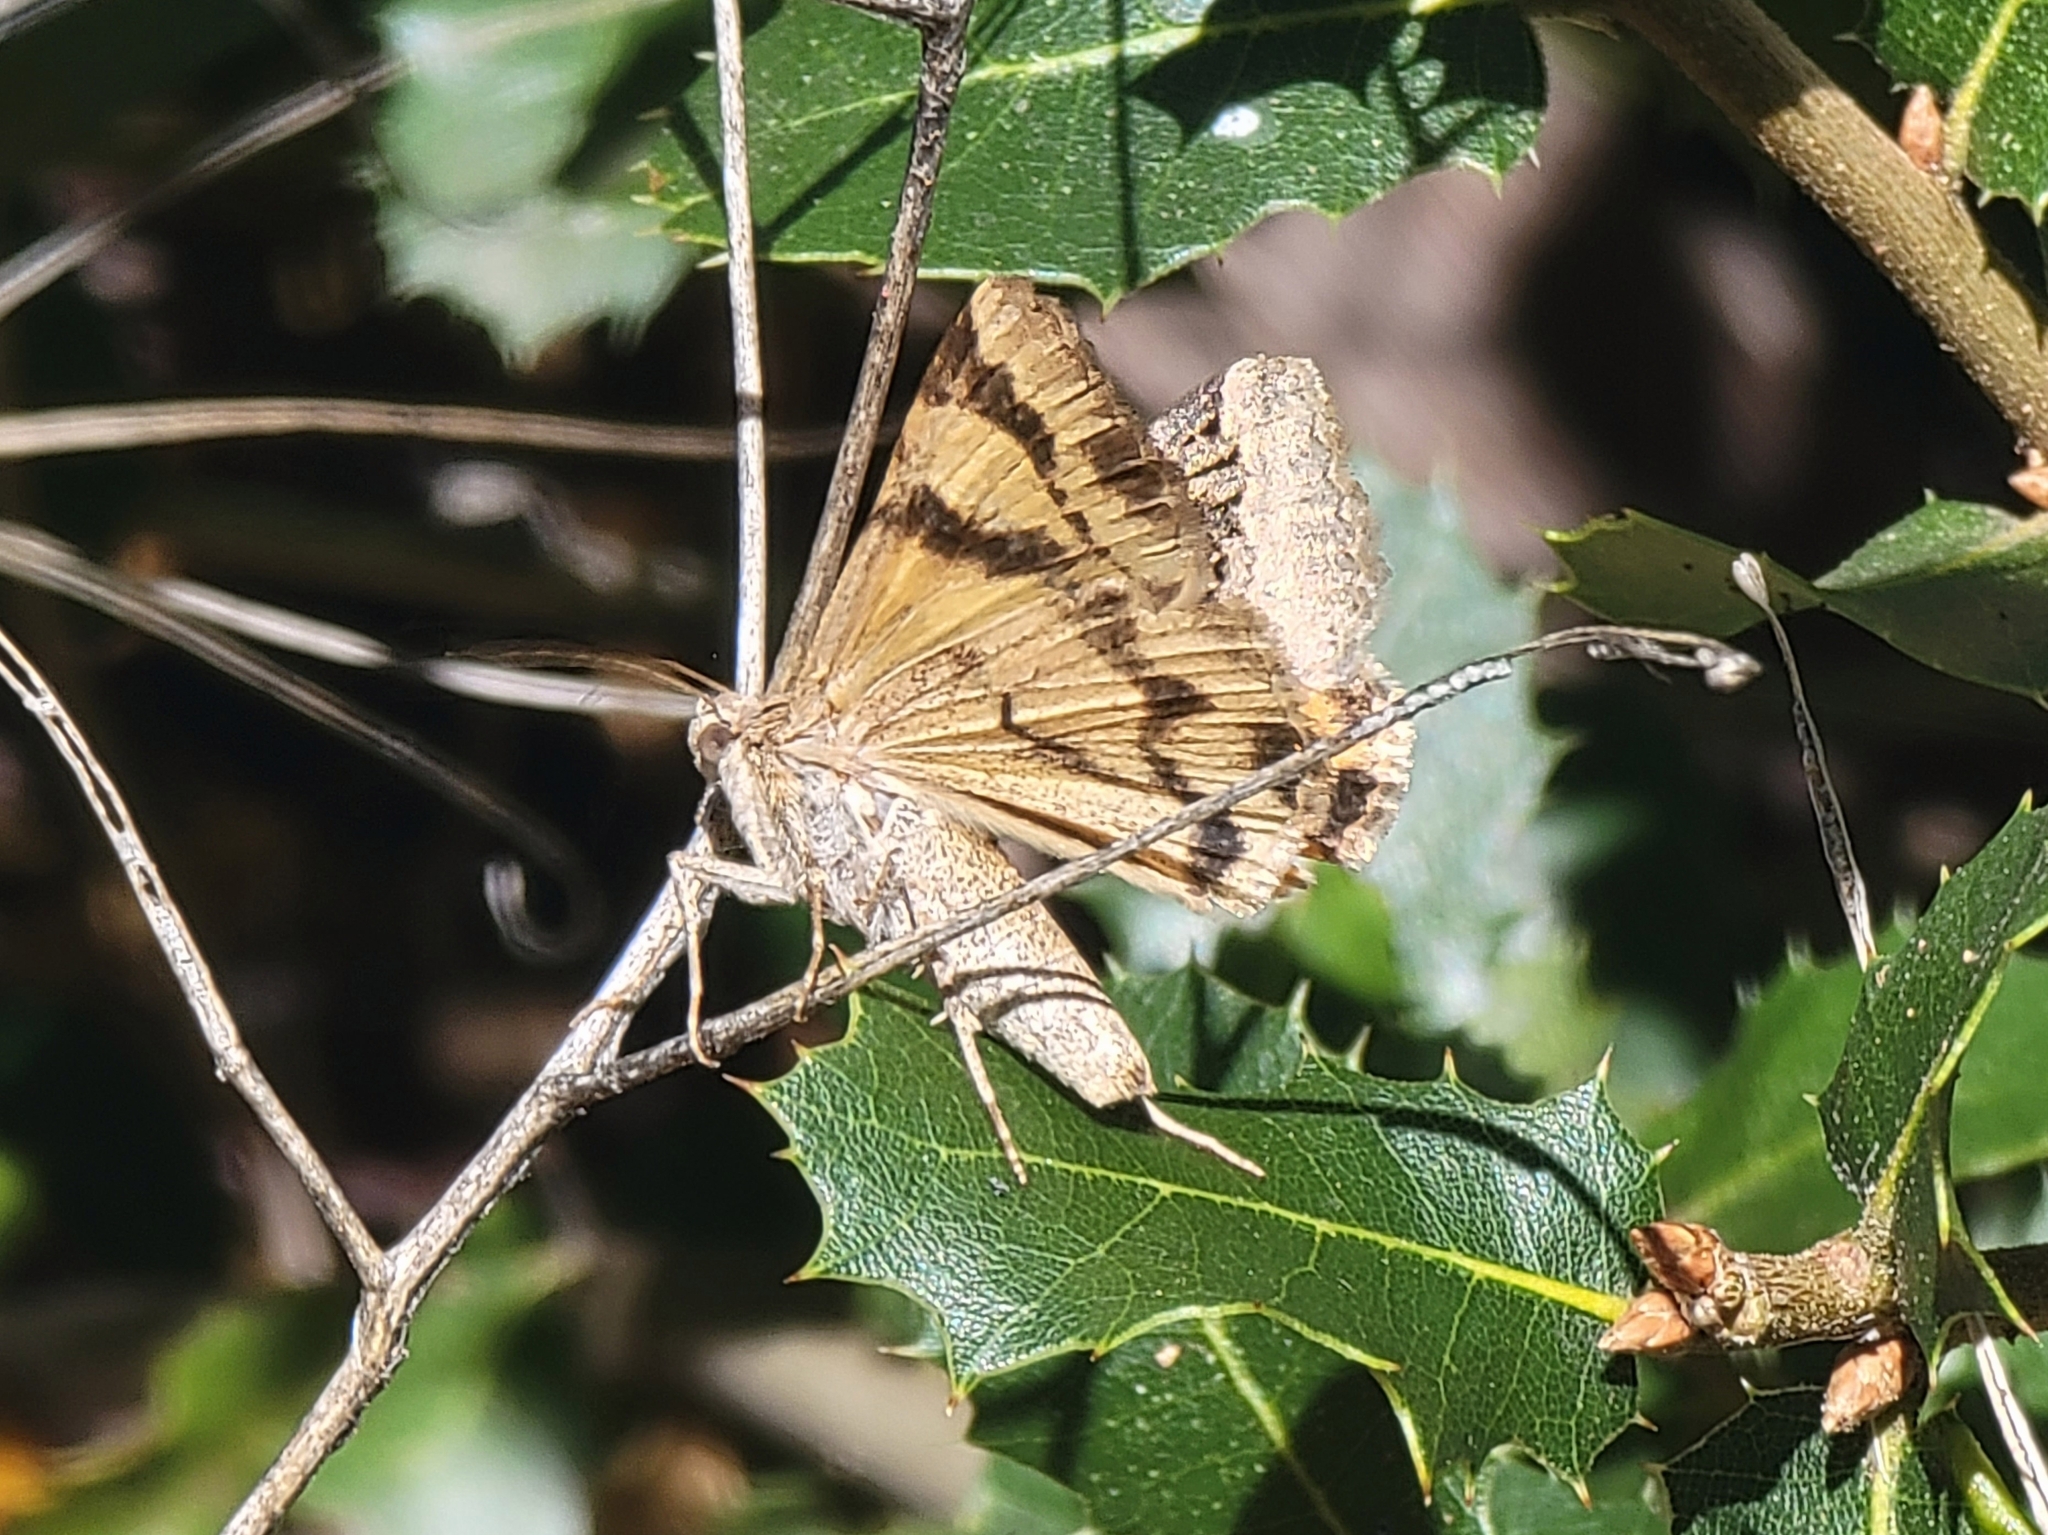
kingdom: Animalia
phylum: Arthropoda
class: Insecta
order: Lepidoptera
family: Erebidae
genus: Drasteria
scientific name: Drasteria divergens
